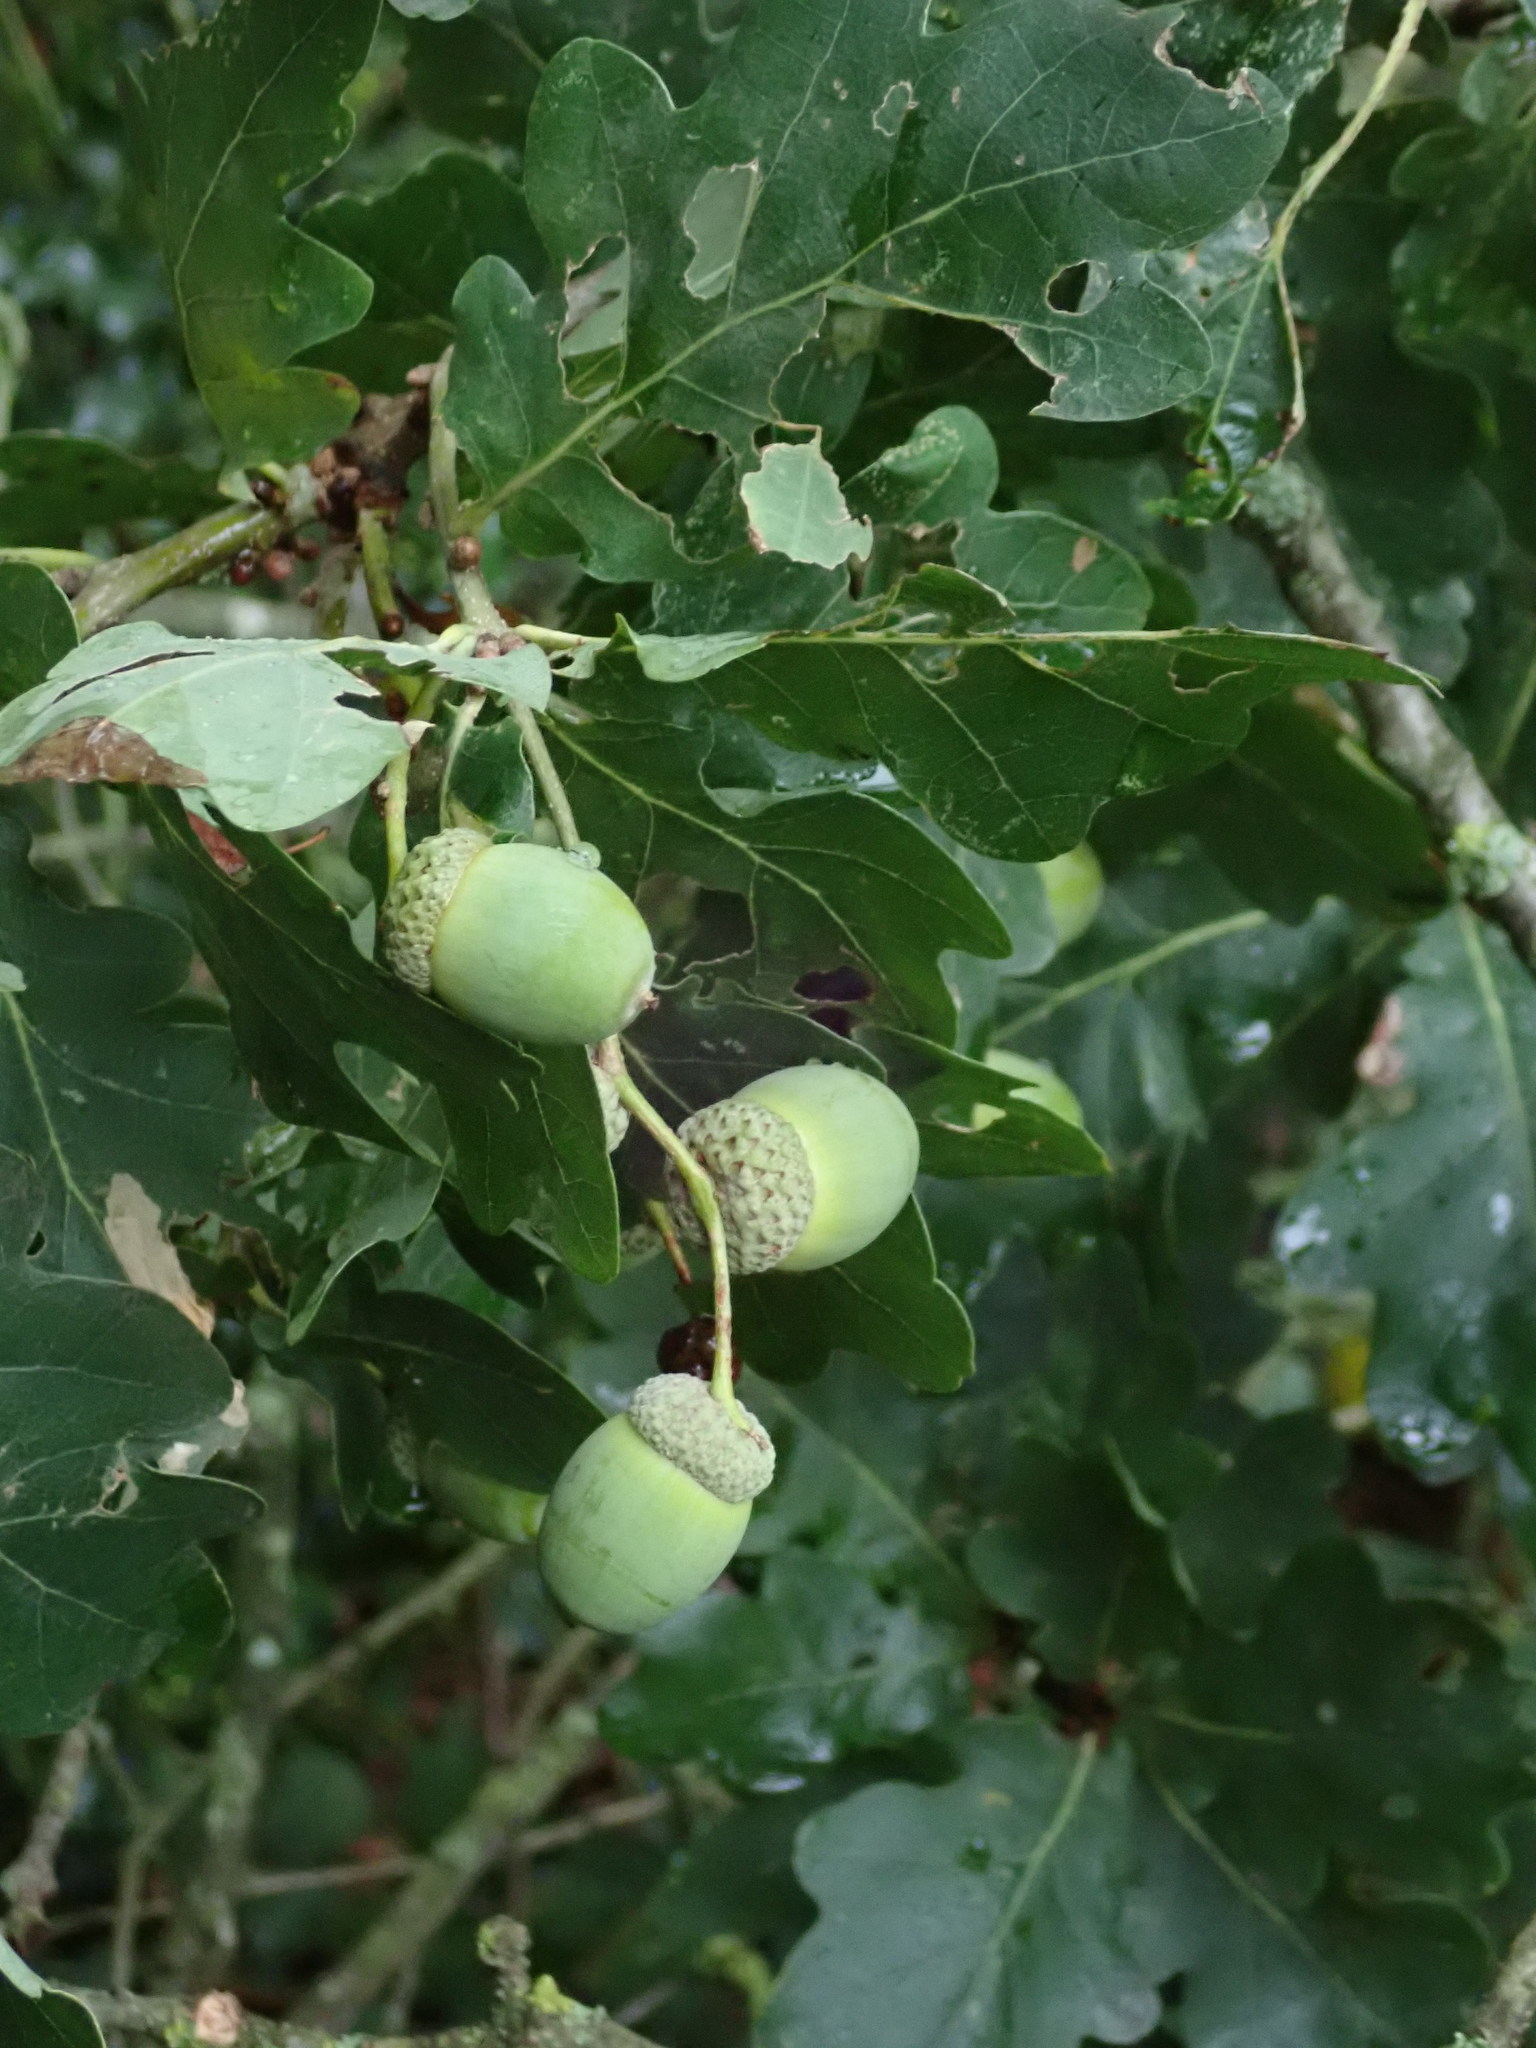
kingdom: Plantae
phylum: Tracheophyta
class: Magnoliopsida
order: Fagales
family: Fagaceae
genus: Quercus
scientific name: Quercus robur
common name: Pedunculate oak
